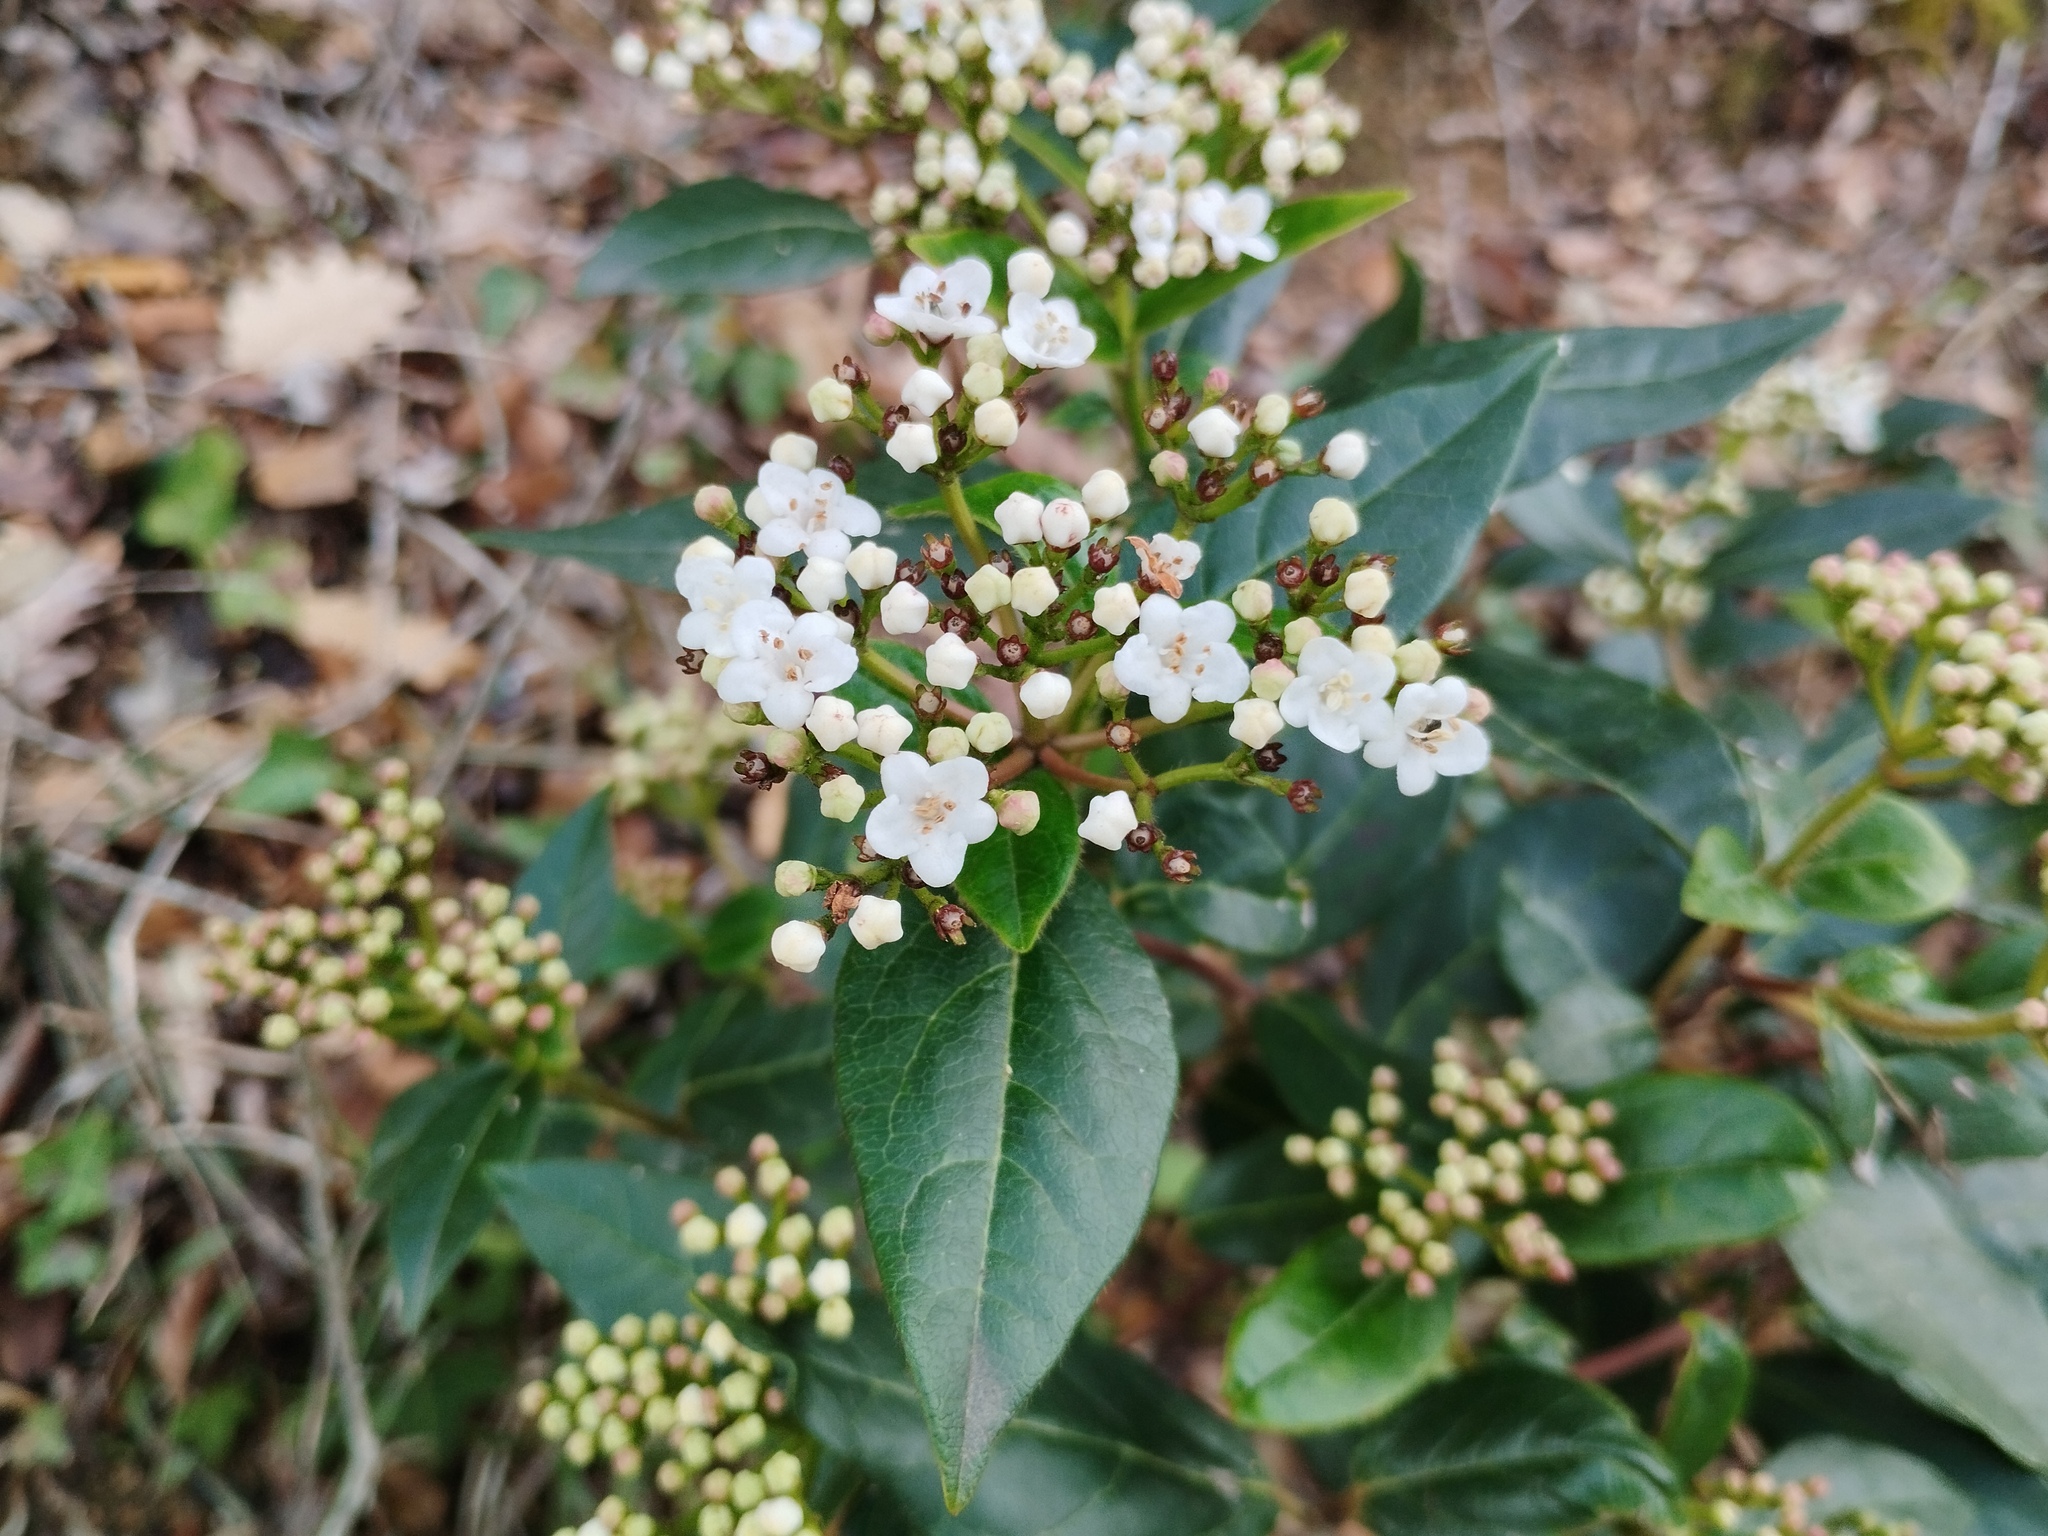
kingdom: Plantae
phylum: Tracheophyta
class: Magnoliopsida
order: Dipsacales
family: Viburnaceae
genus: Viburnum
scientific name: Viburnum tinus
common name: Laurustinus
